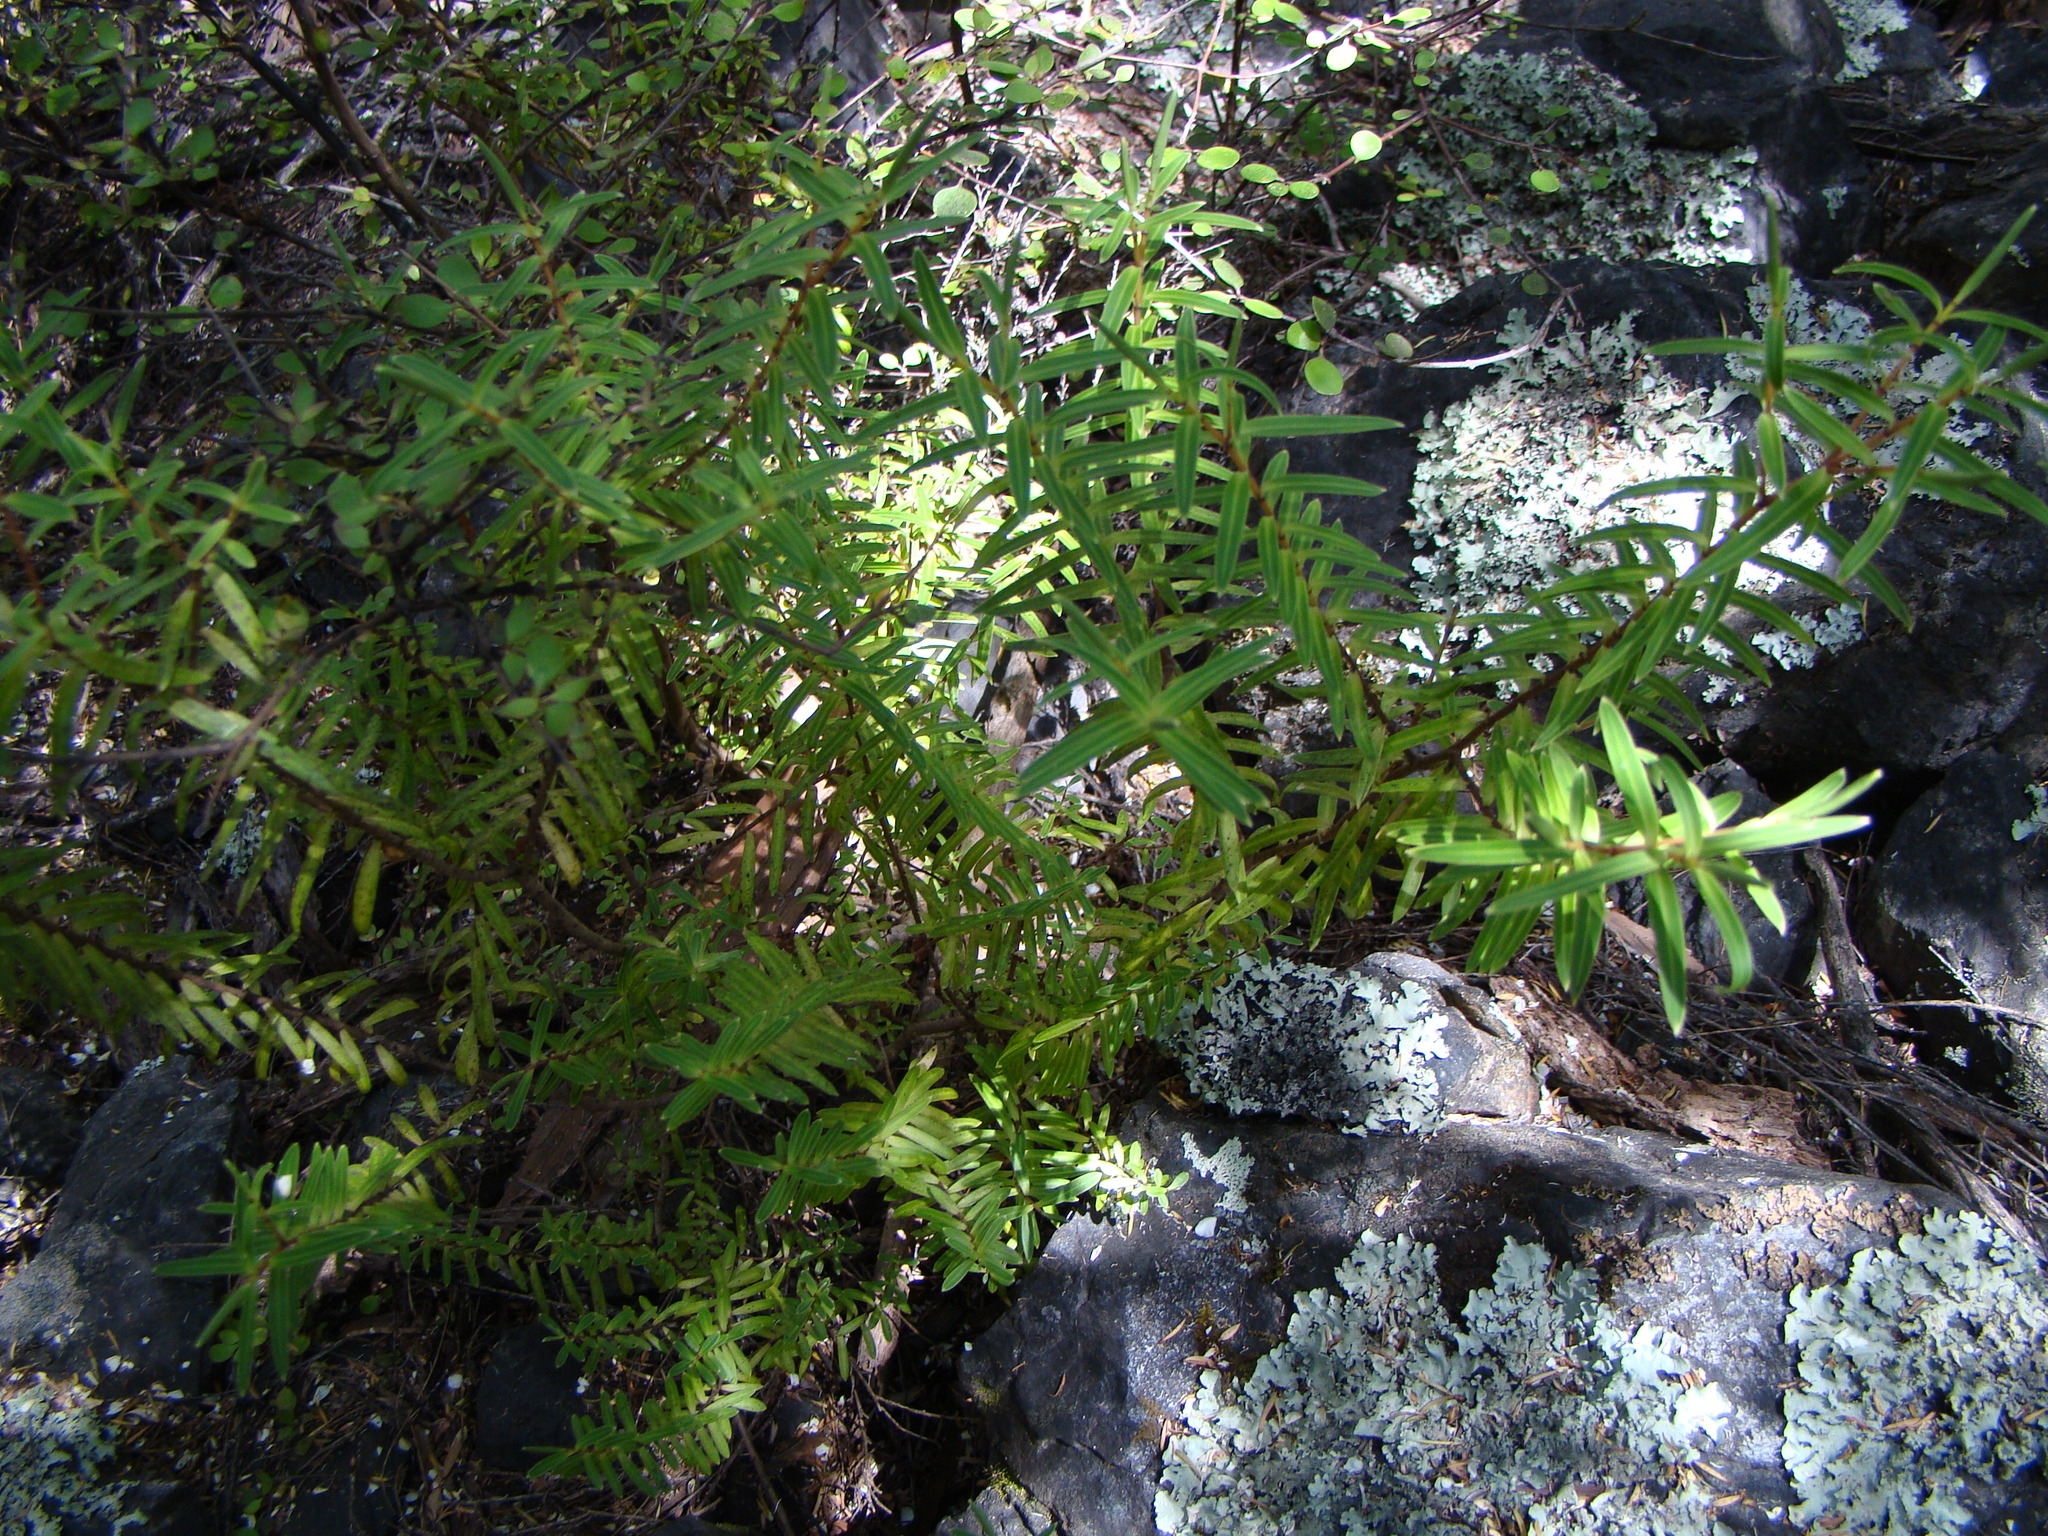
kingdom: Plantae
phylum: Tracheophyta
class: Magnoliopsida
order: Lamiales
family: Plantaginaceae
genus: Veronica
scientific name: Veronica parviflora
